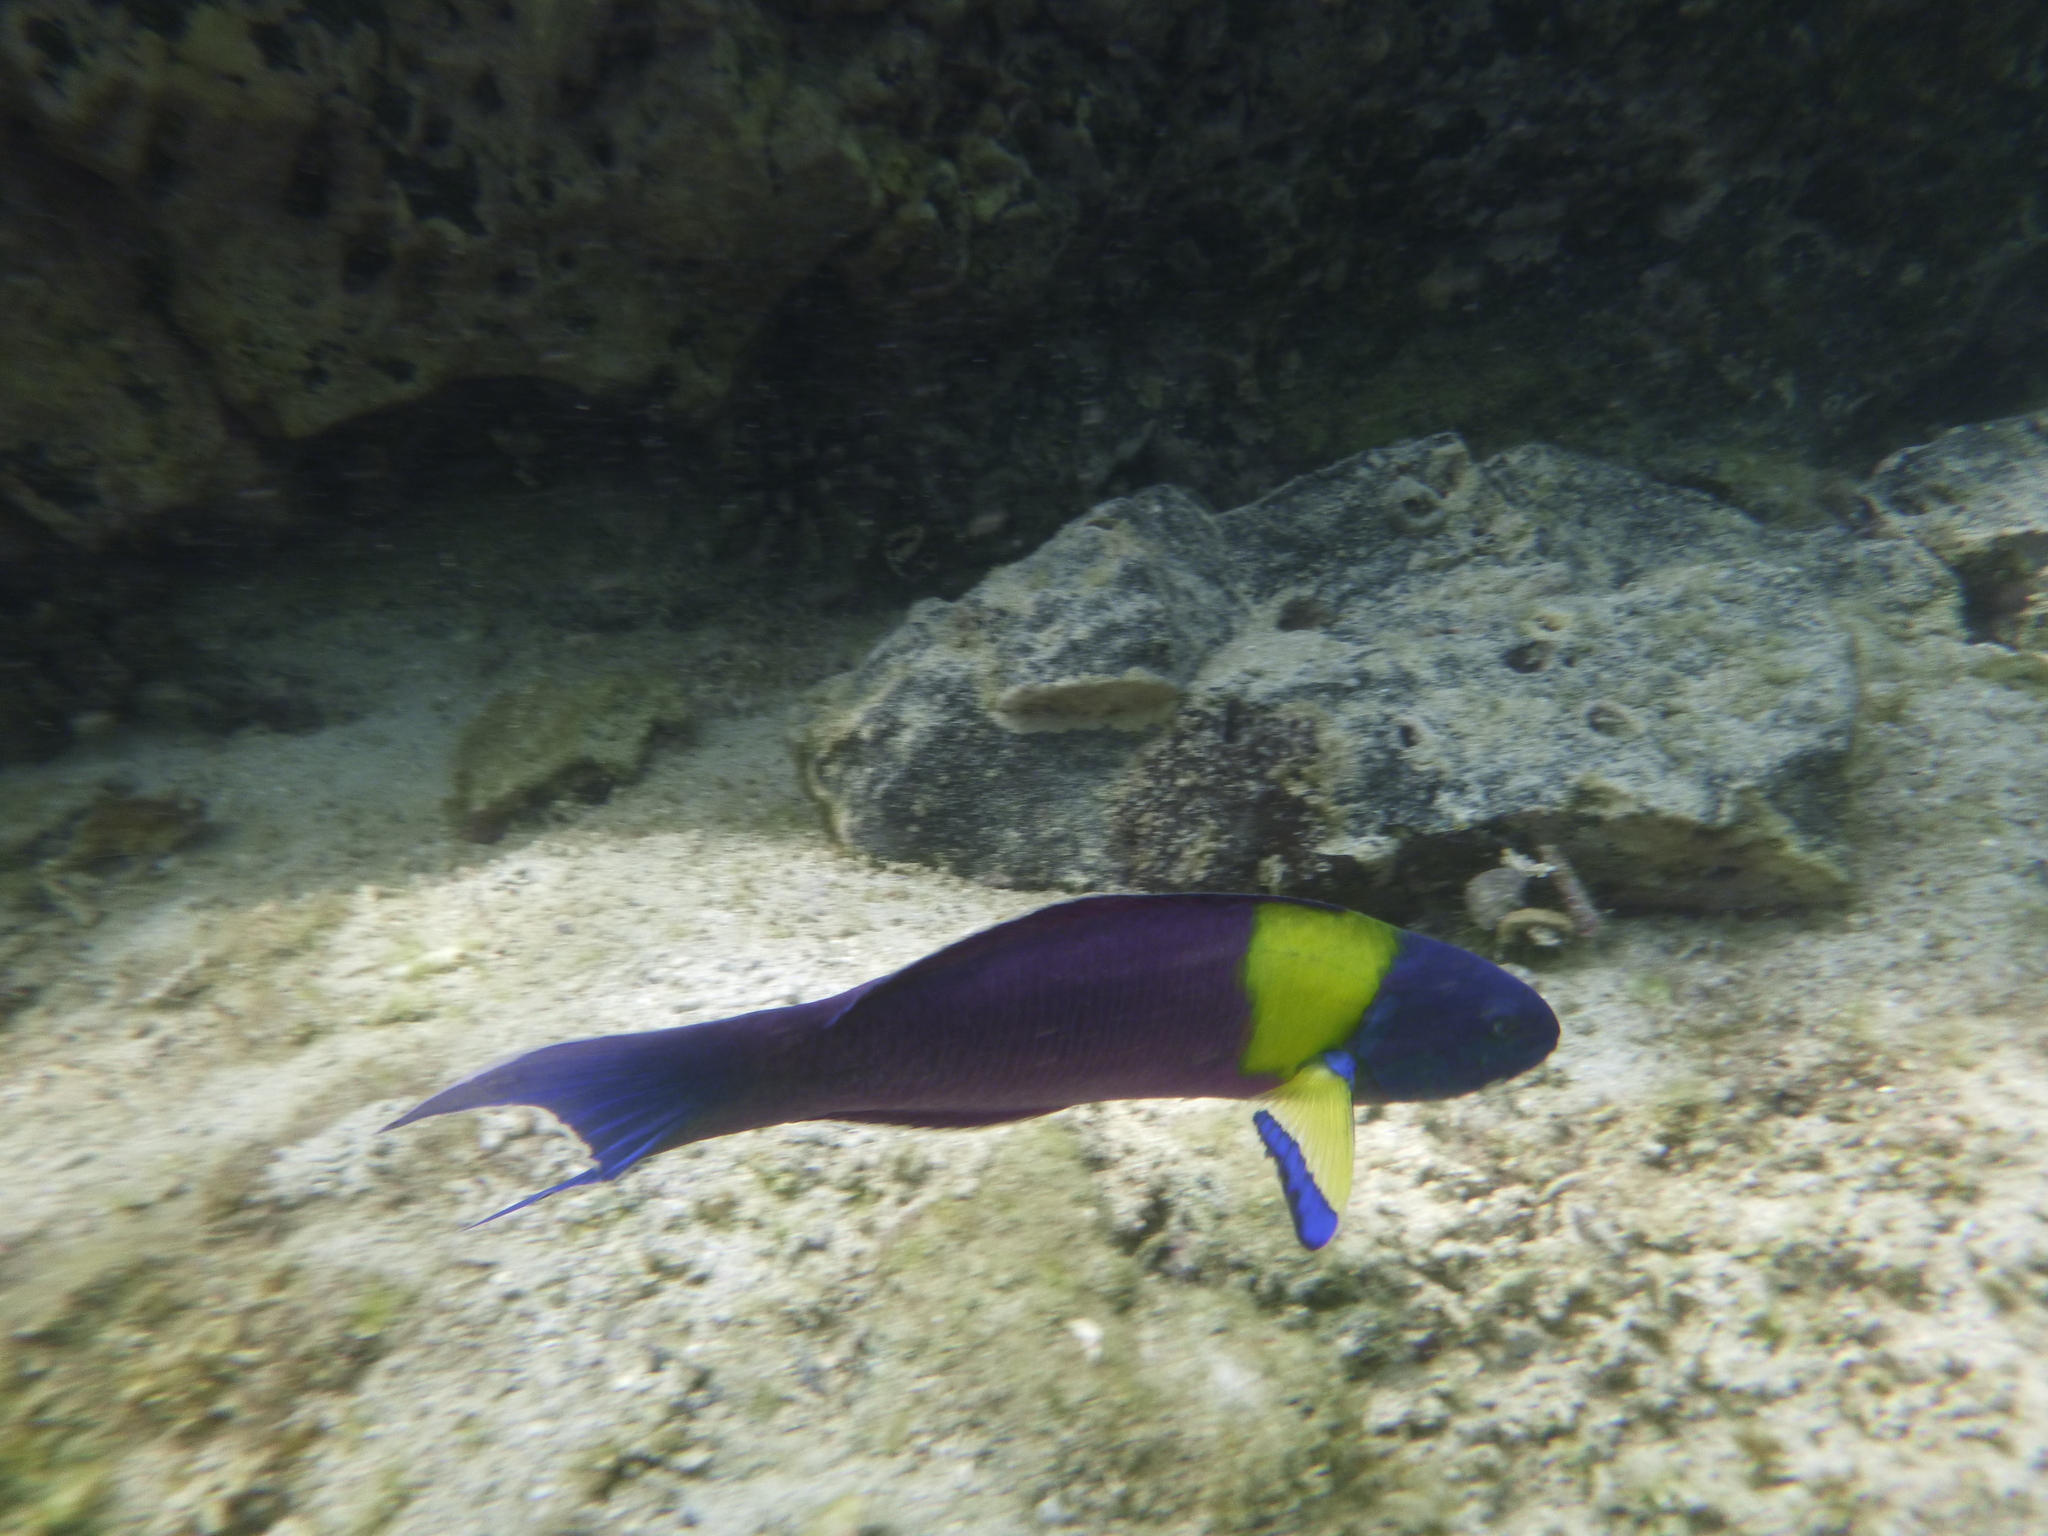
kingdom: Animalia
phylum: Chordata
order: Perciformes
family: Labridae
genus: Thalassoma
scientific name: Thalassoma lucasanum
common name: Cortez rainbow wrasse
